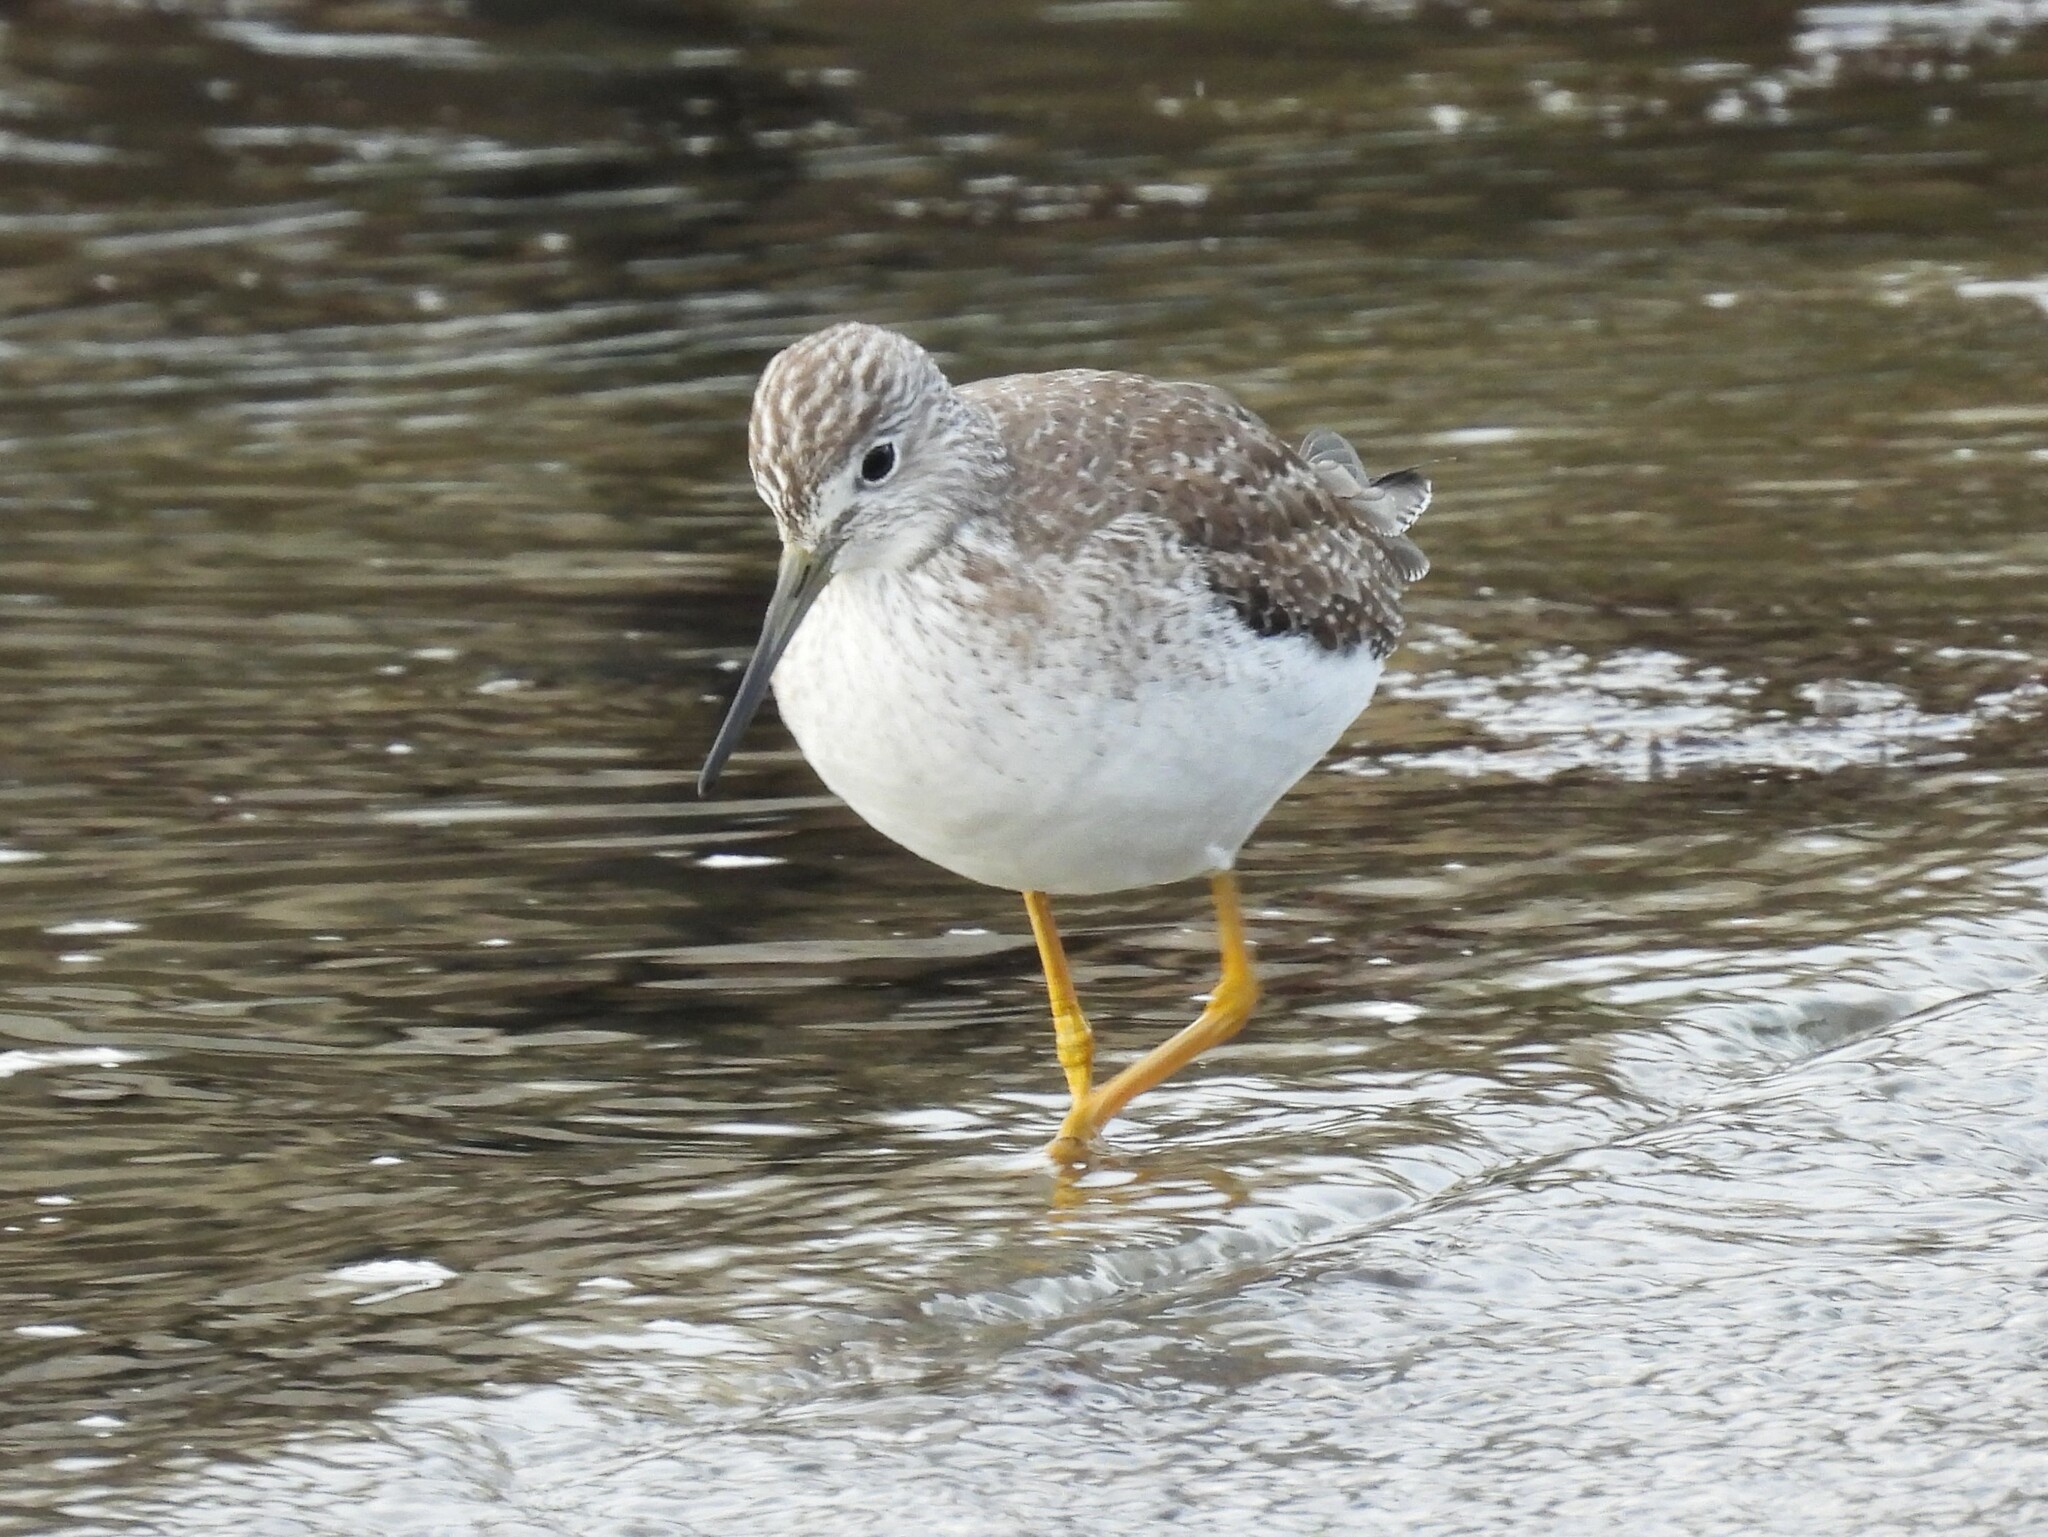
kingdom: Animalia
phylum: Chordata
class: Aves
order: Charadriiformes
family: Scolopacidae
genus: Tringa
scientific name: Tringa melanoleuca
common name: Greater yellowlegs
